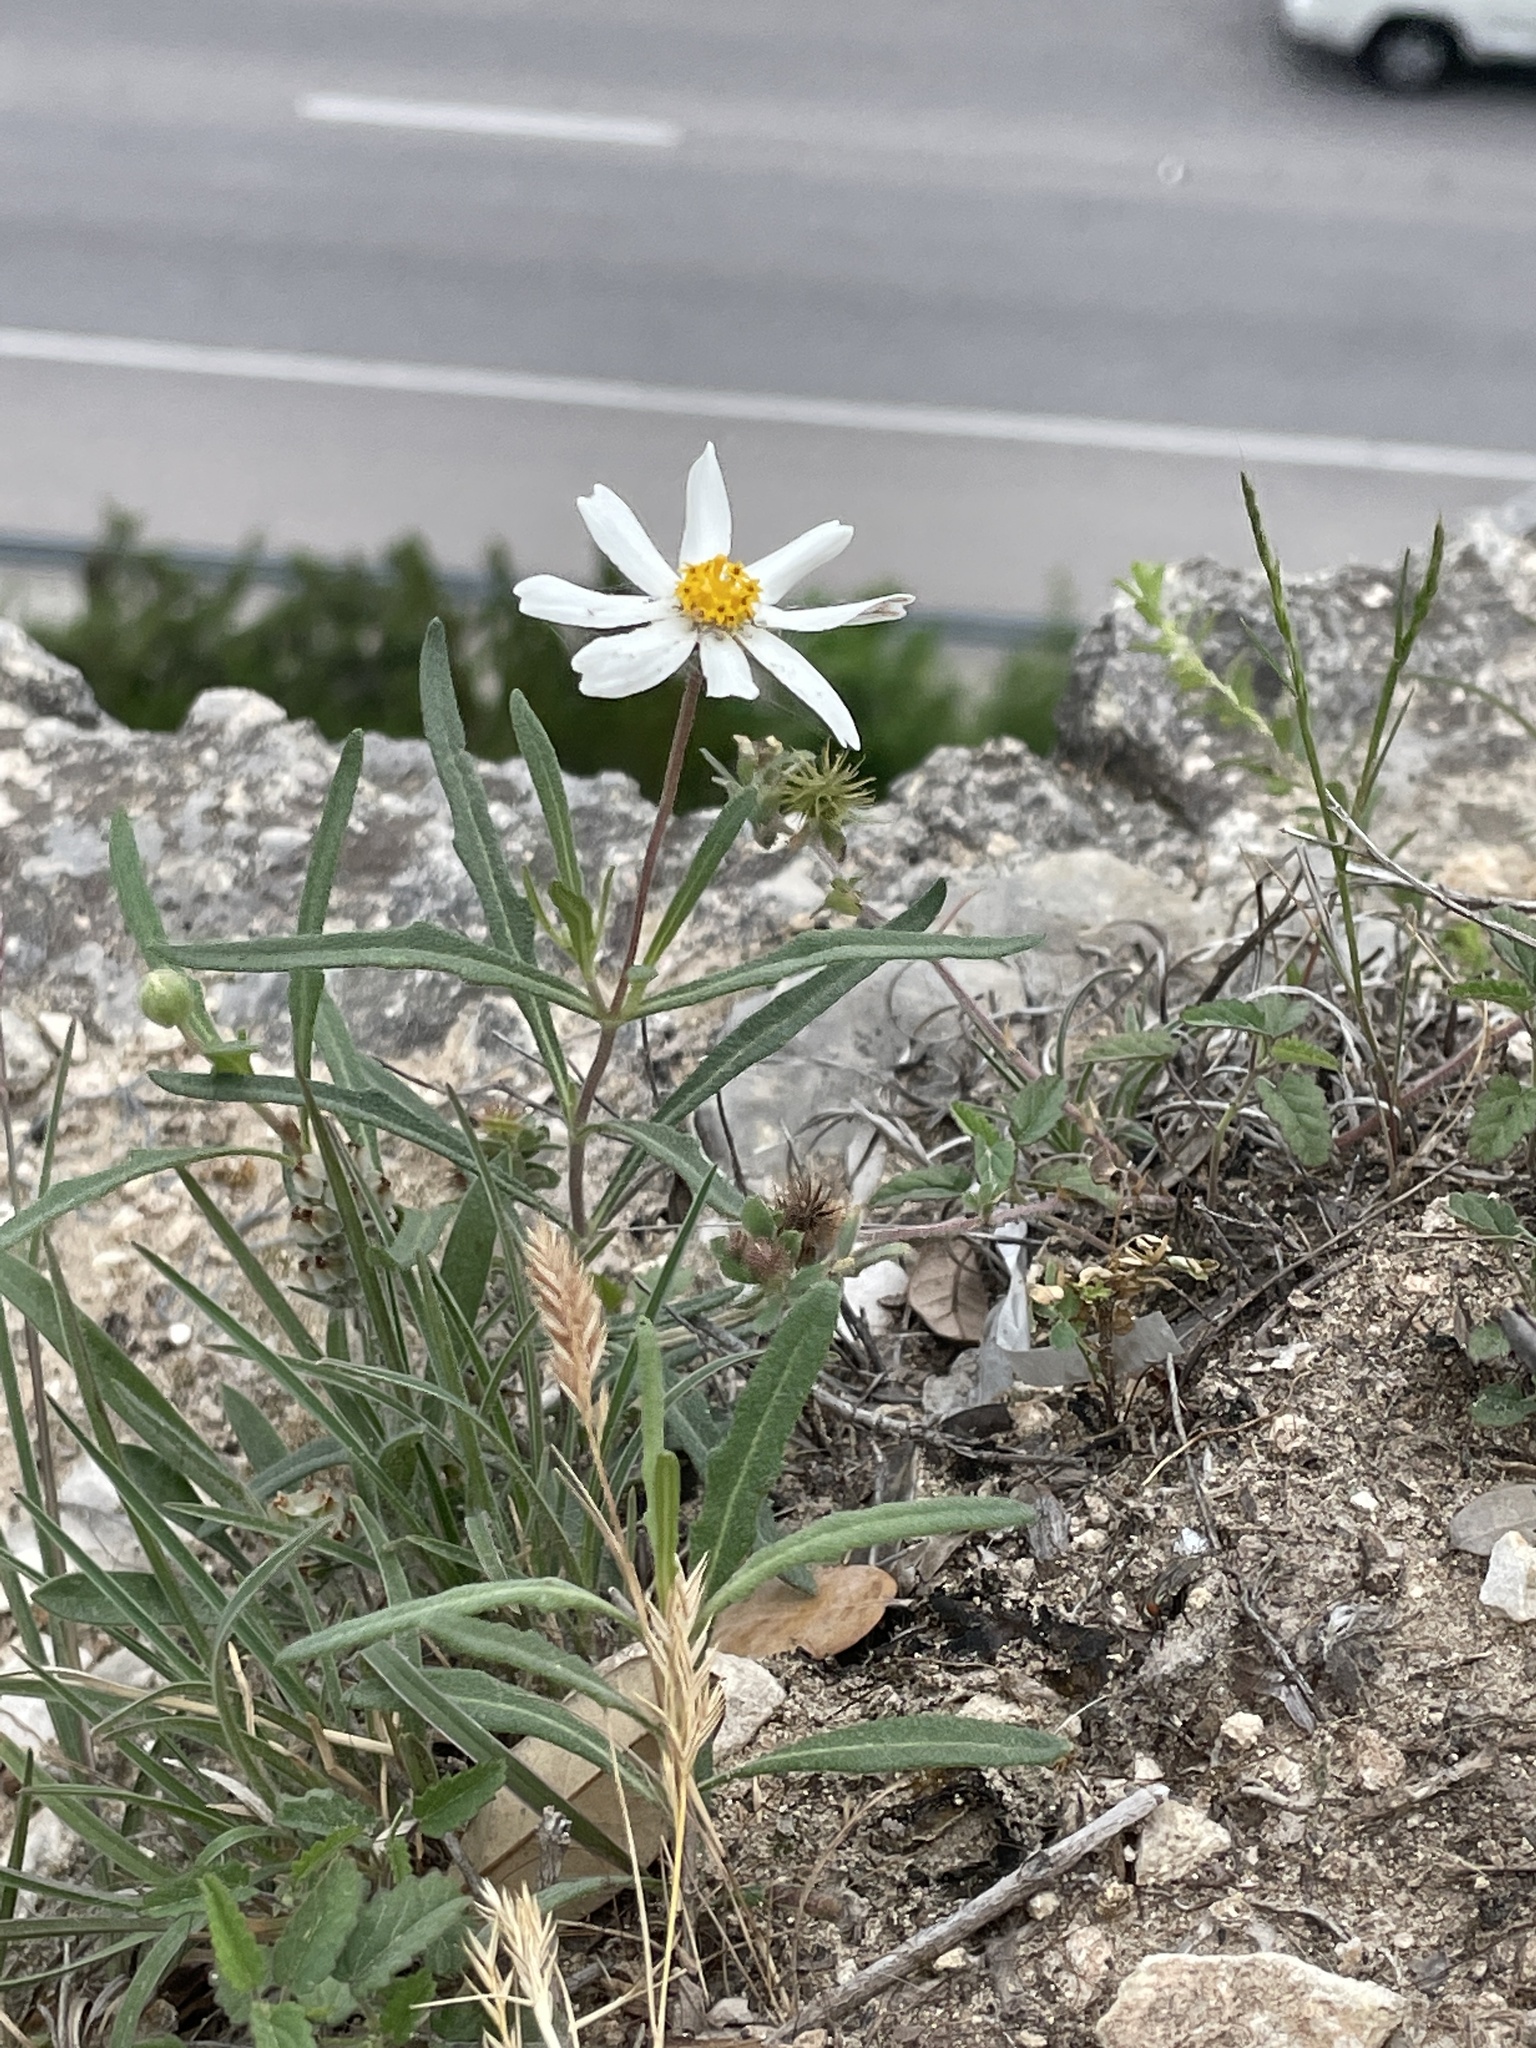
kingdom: Plantae
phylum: Tracheophyta
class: Magnoliopsida
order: Asterales
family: Asteraceae
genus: Melampodium
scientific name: Melampodium leucanthum
